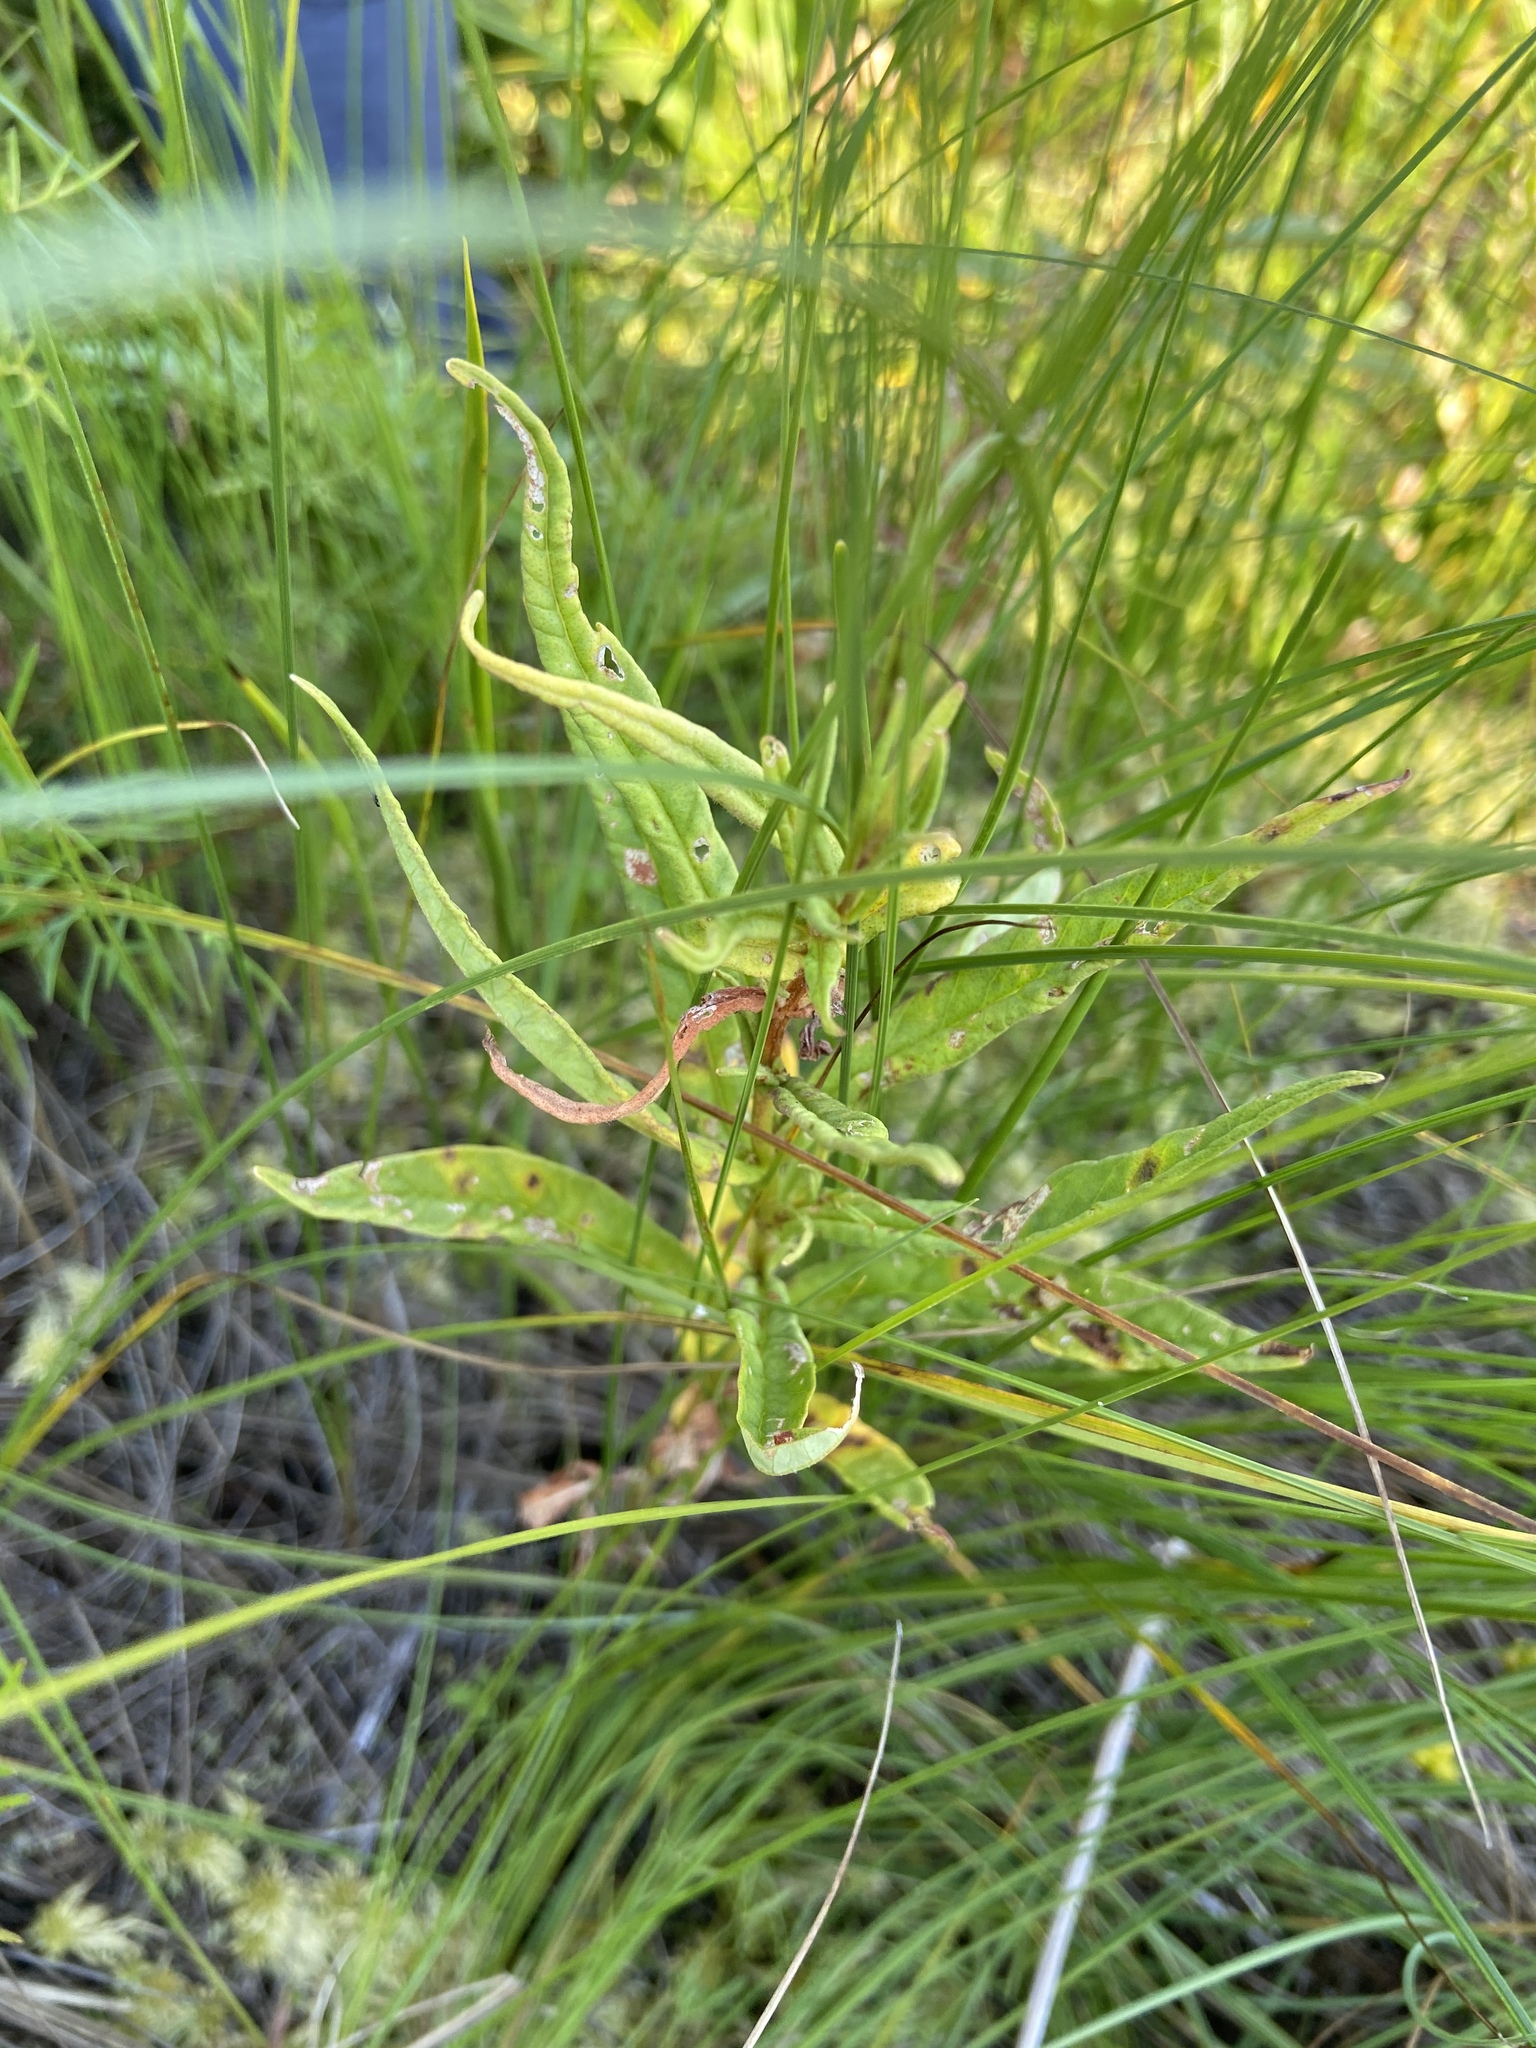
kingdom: Plantae
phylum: Tracheophyta
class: Magnoliopsida
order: Ericales
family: Primulaceae
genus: Lysimachia
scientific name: Lysimachia thyrsiflora
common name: Tufted loosestrife
